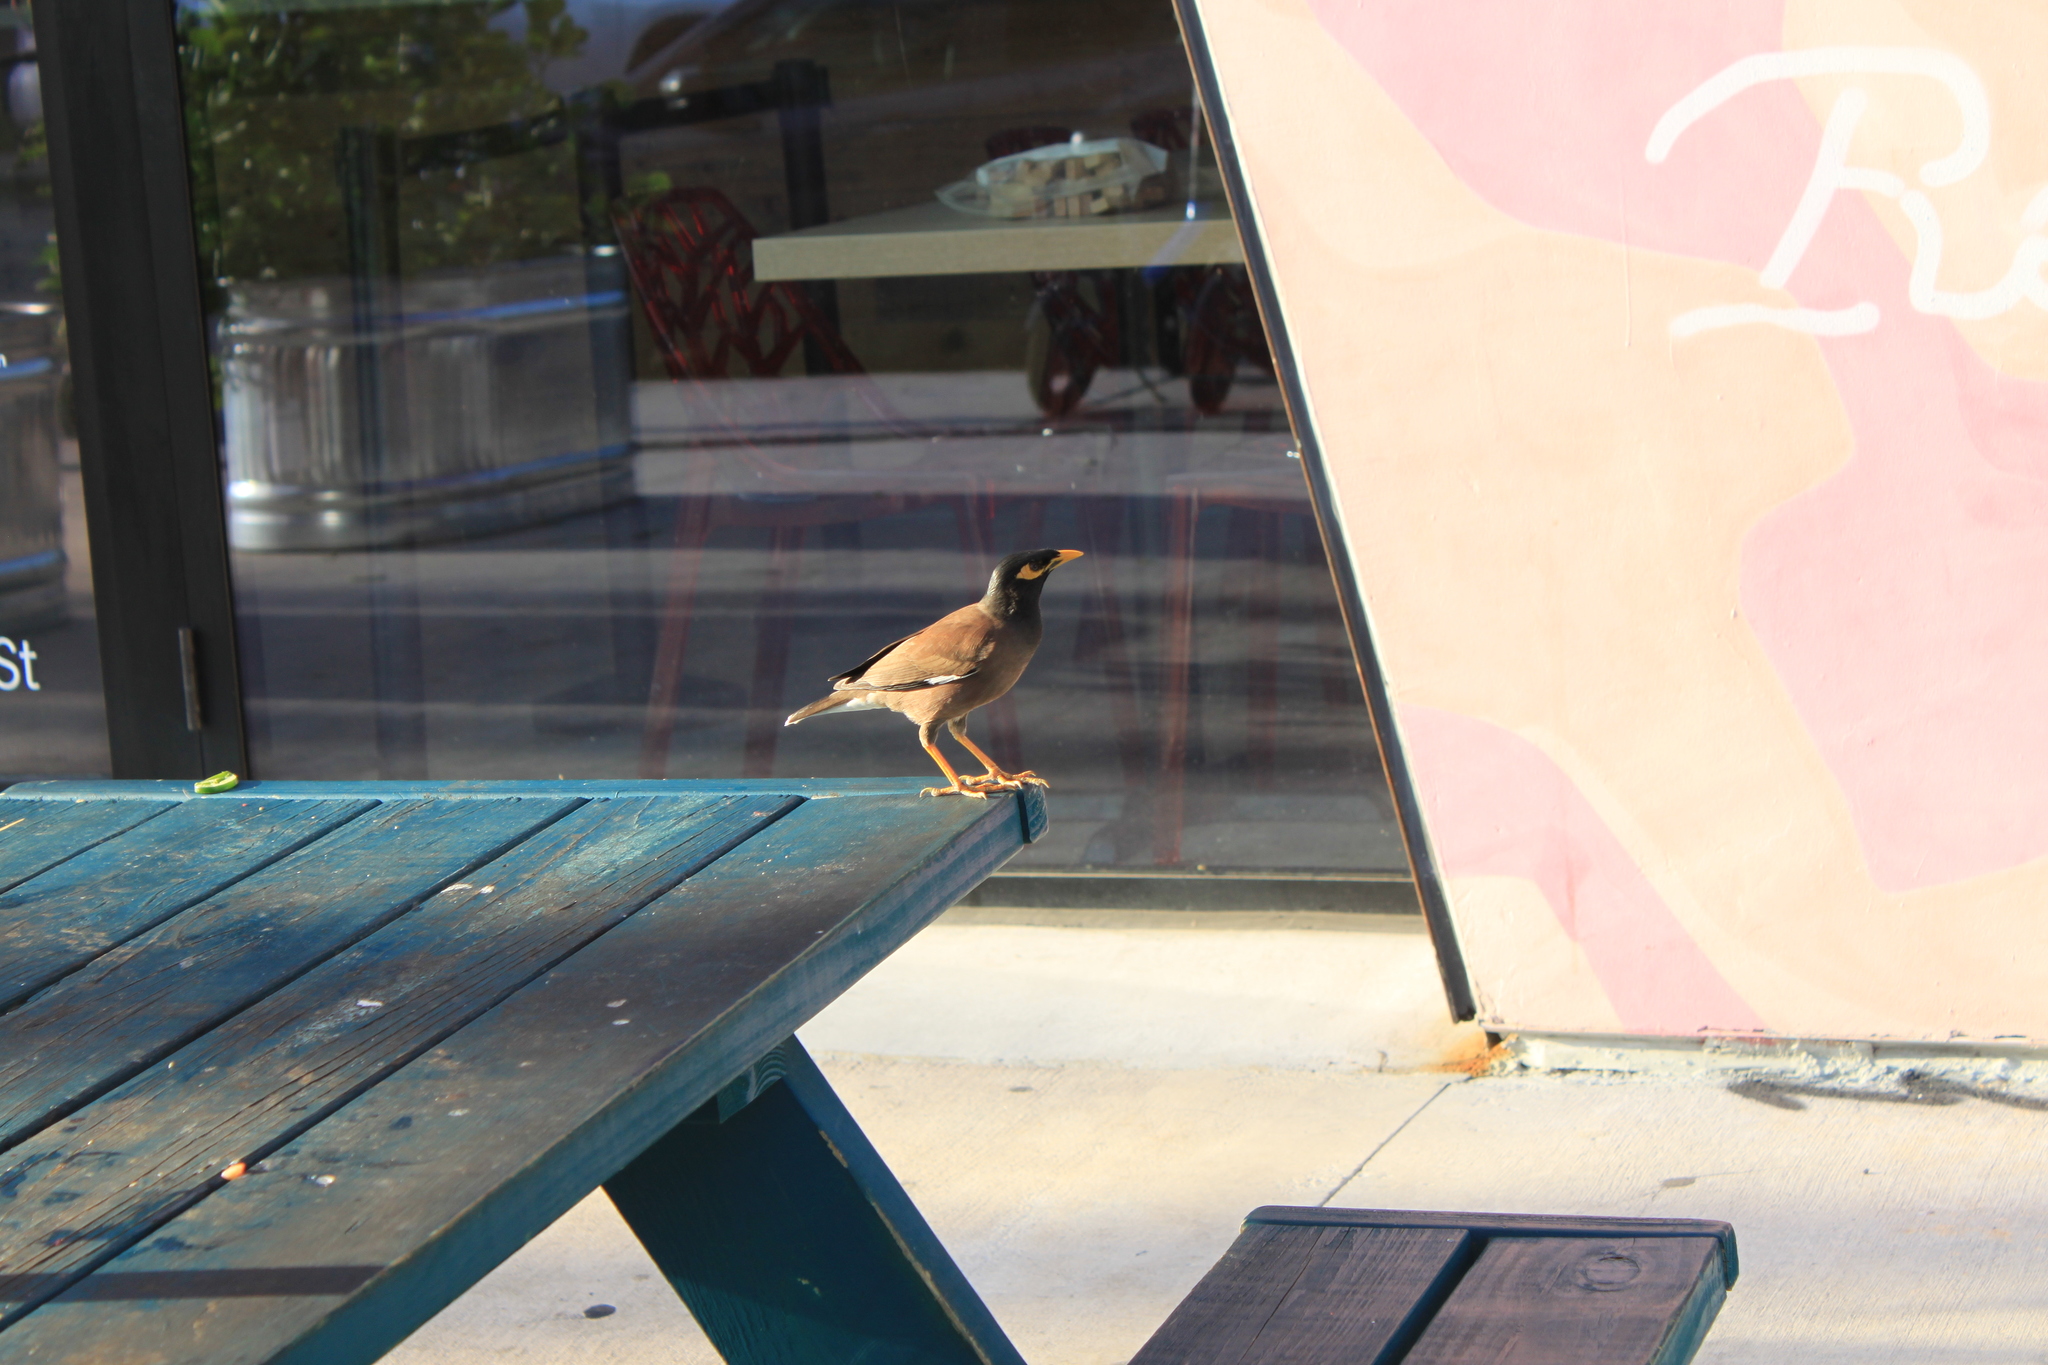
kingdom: Animalia
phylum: Chordata
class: Aves
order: Passeriformes
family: Sturnidae
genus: Acridotheres
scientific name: Acridotheres tristis
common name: Common myna
